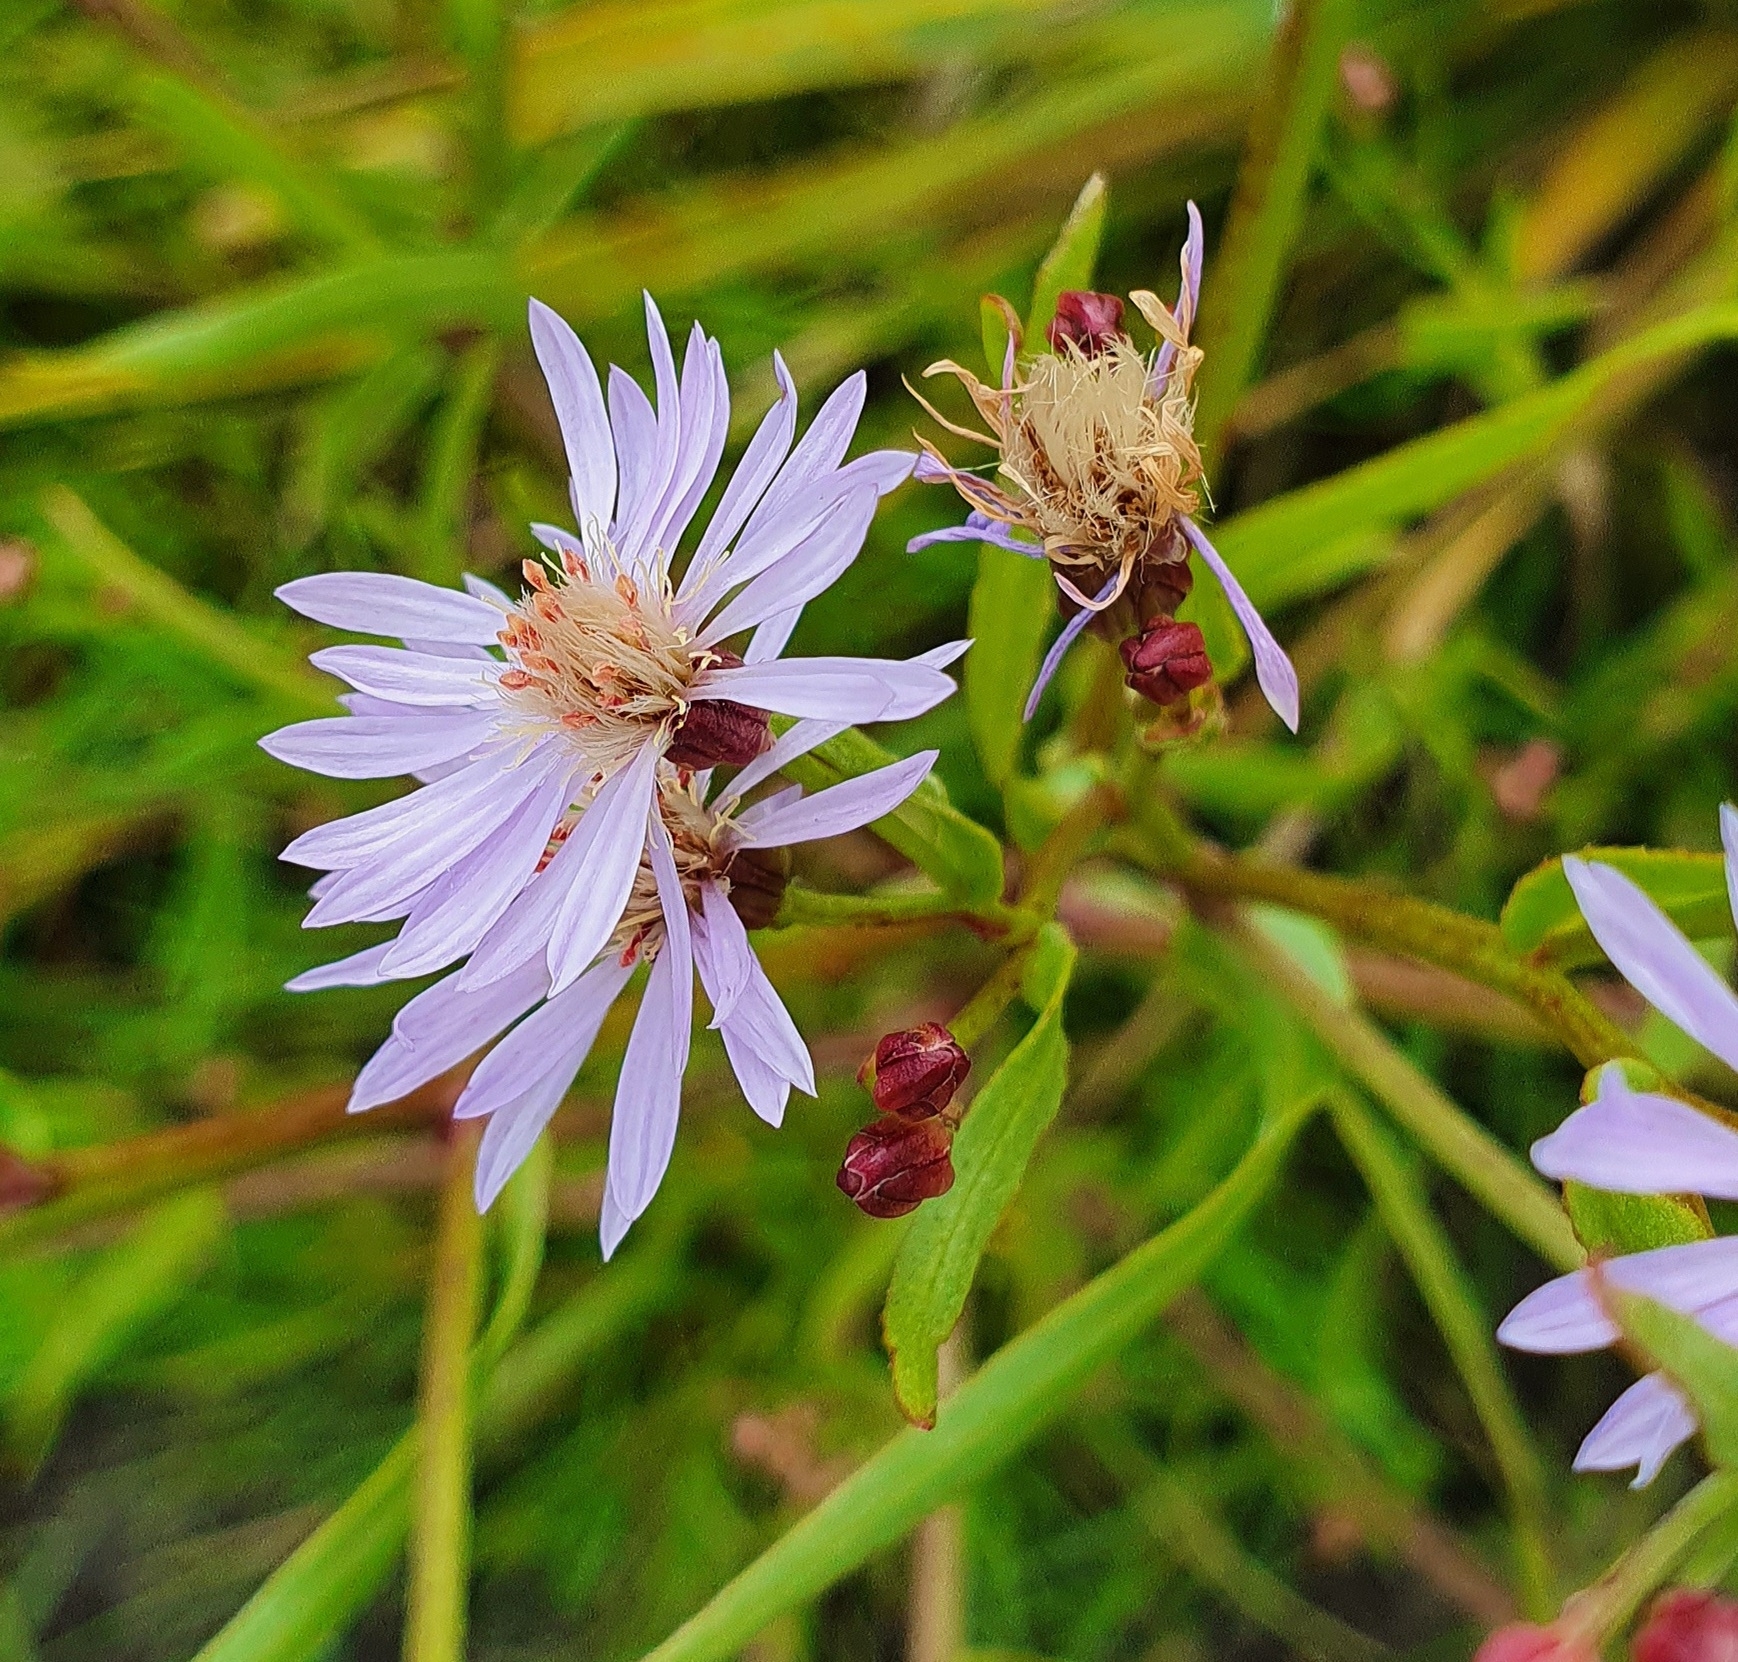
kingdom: Plantae
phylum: Tracheophyta
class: Magnoliopsida
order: Asterales
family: Asteraceae
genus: Tripolium
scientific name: Tripolium pannonicum
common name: Sea aster
